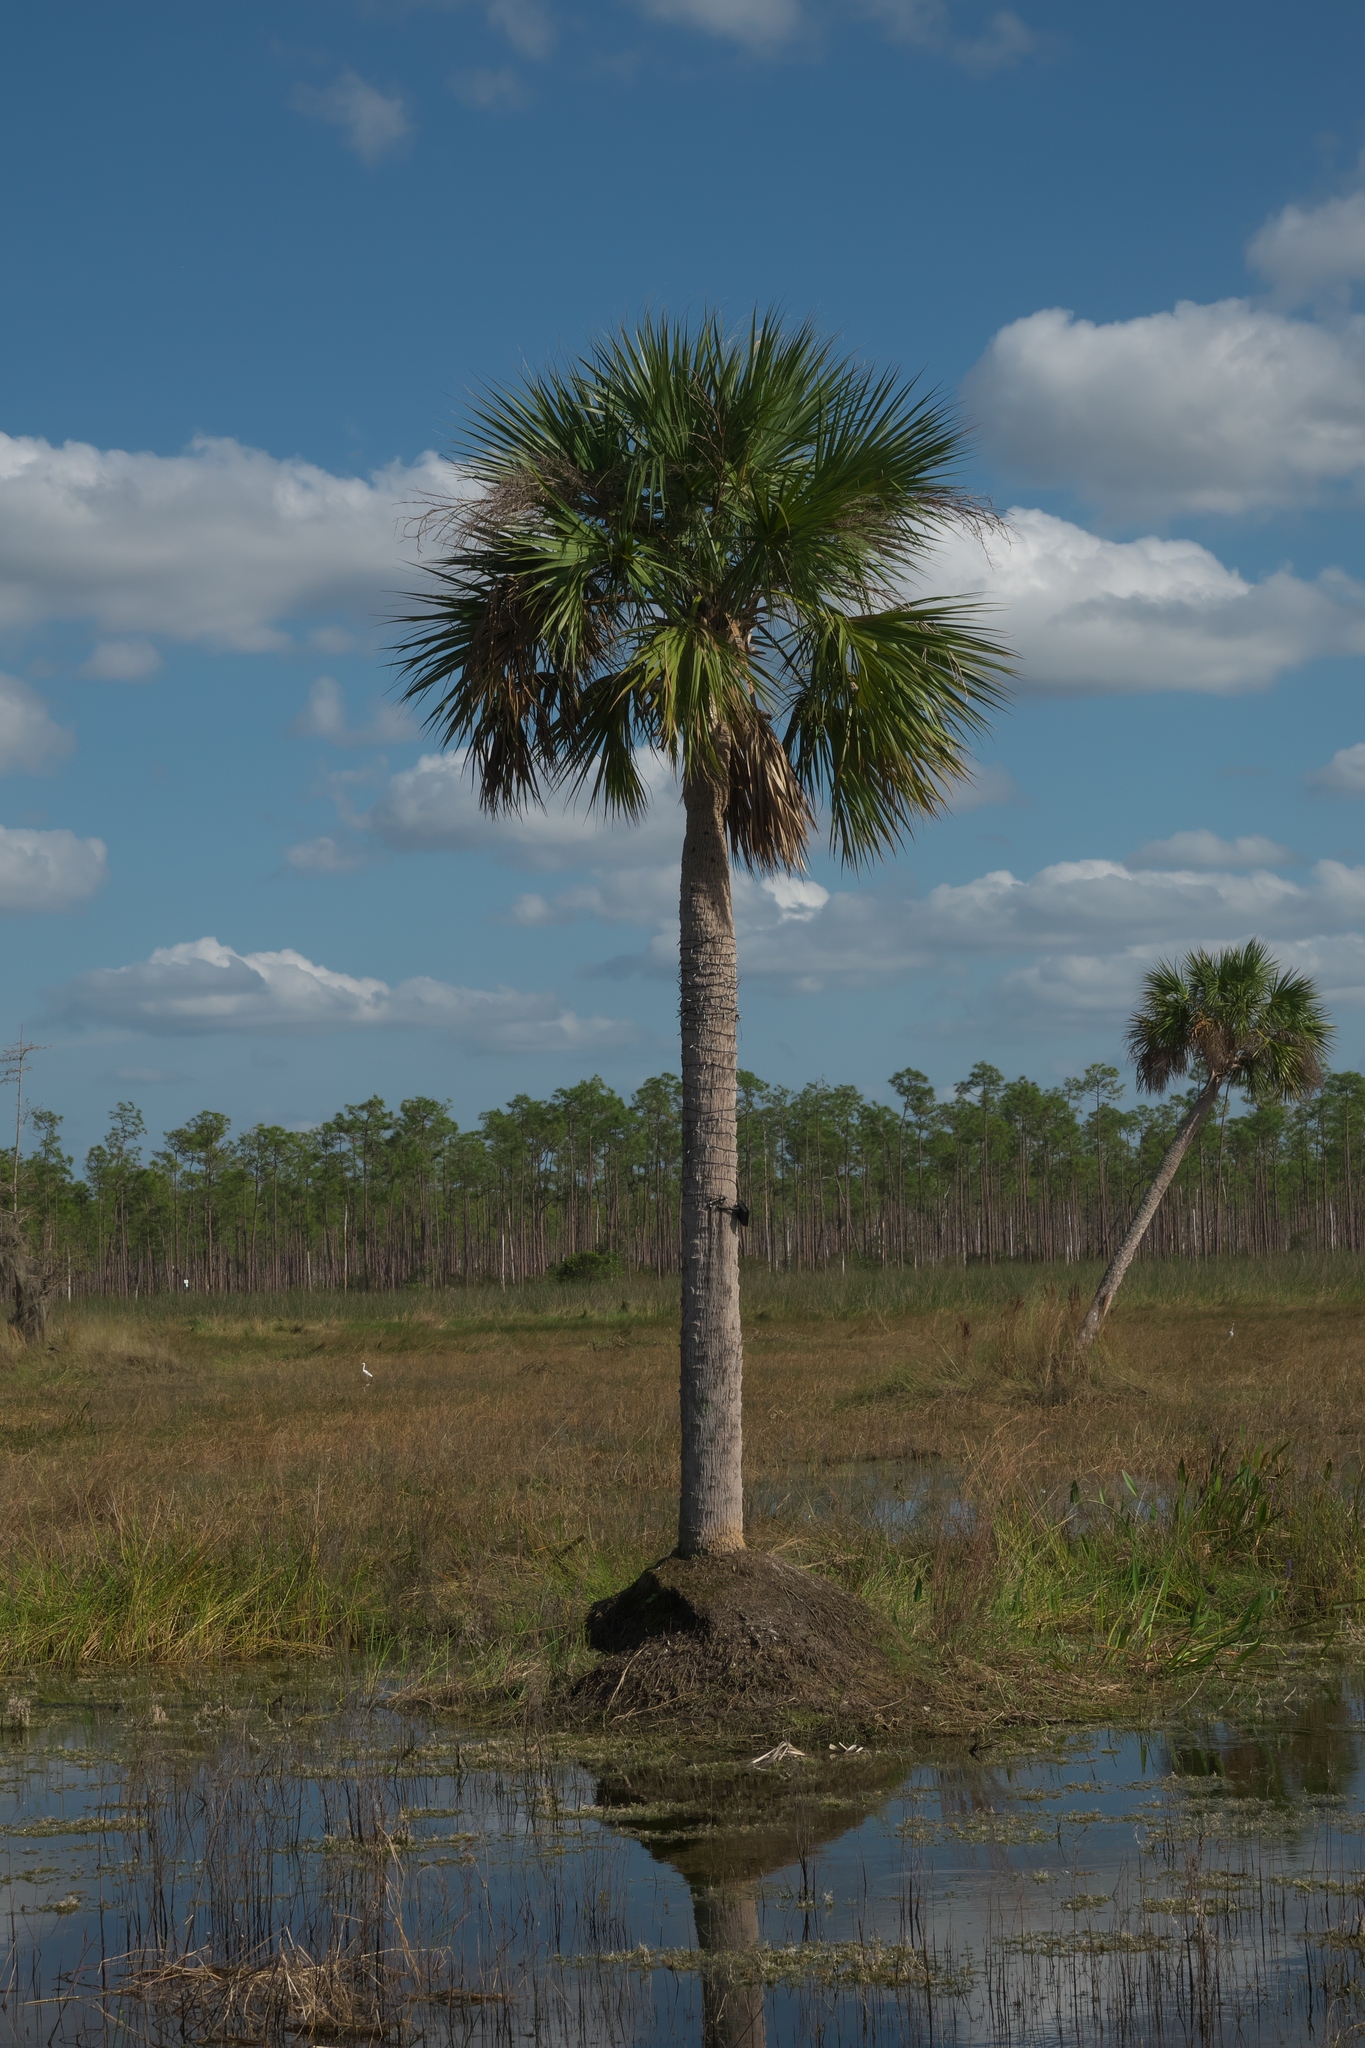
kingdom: Plantae
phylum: Tracheophyta
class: Liliopsida
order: Arecales
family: Arecaceae
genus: Sabal
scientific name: Sabal palmetto
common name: Blue palmetto
